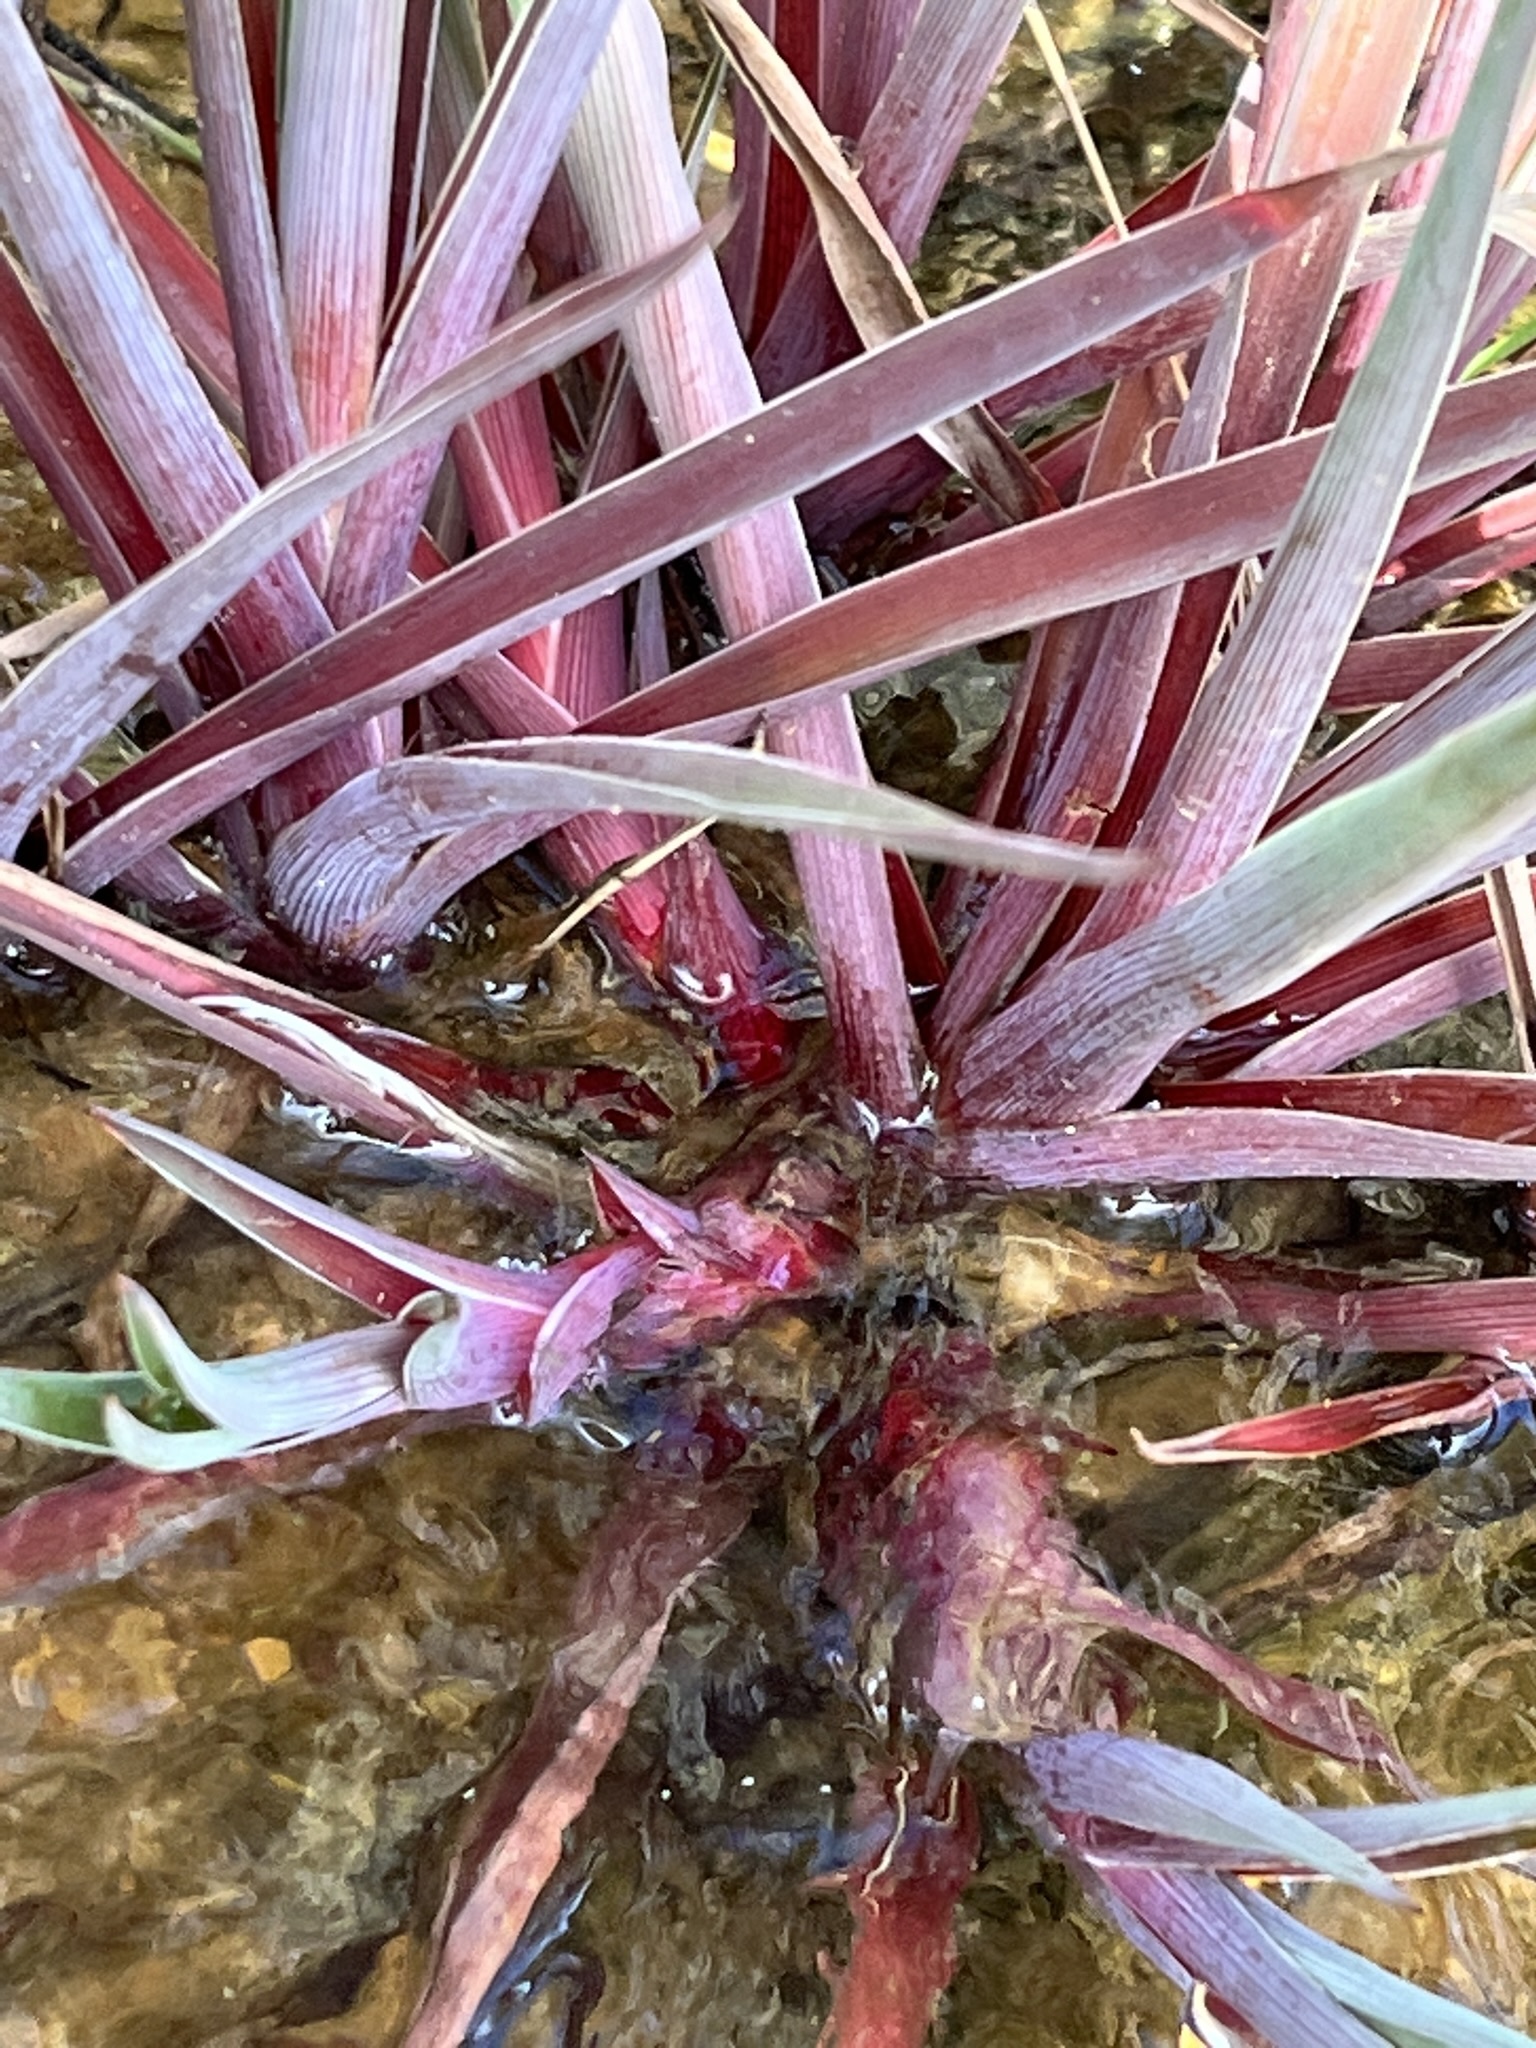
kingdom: Plantae
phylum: Tracheophyta
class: Liliopsida
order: Poales
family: Juncaceae
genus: Juncus
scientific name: Juncus lomatophyllus
